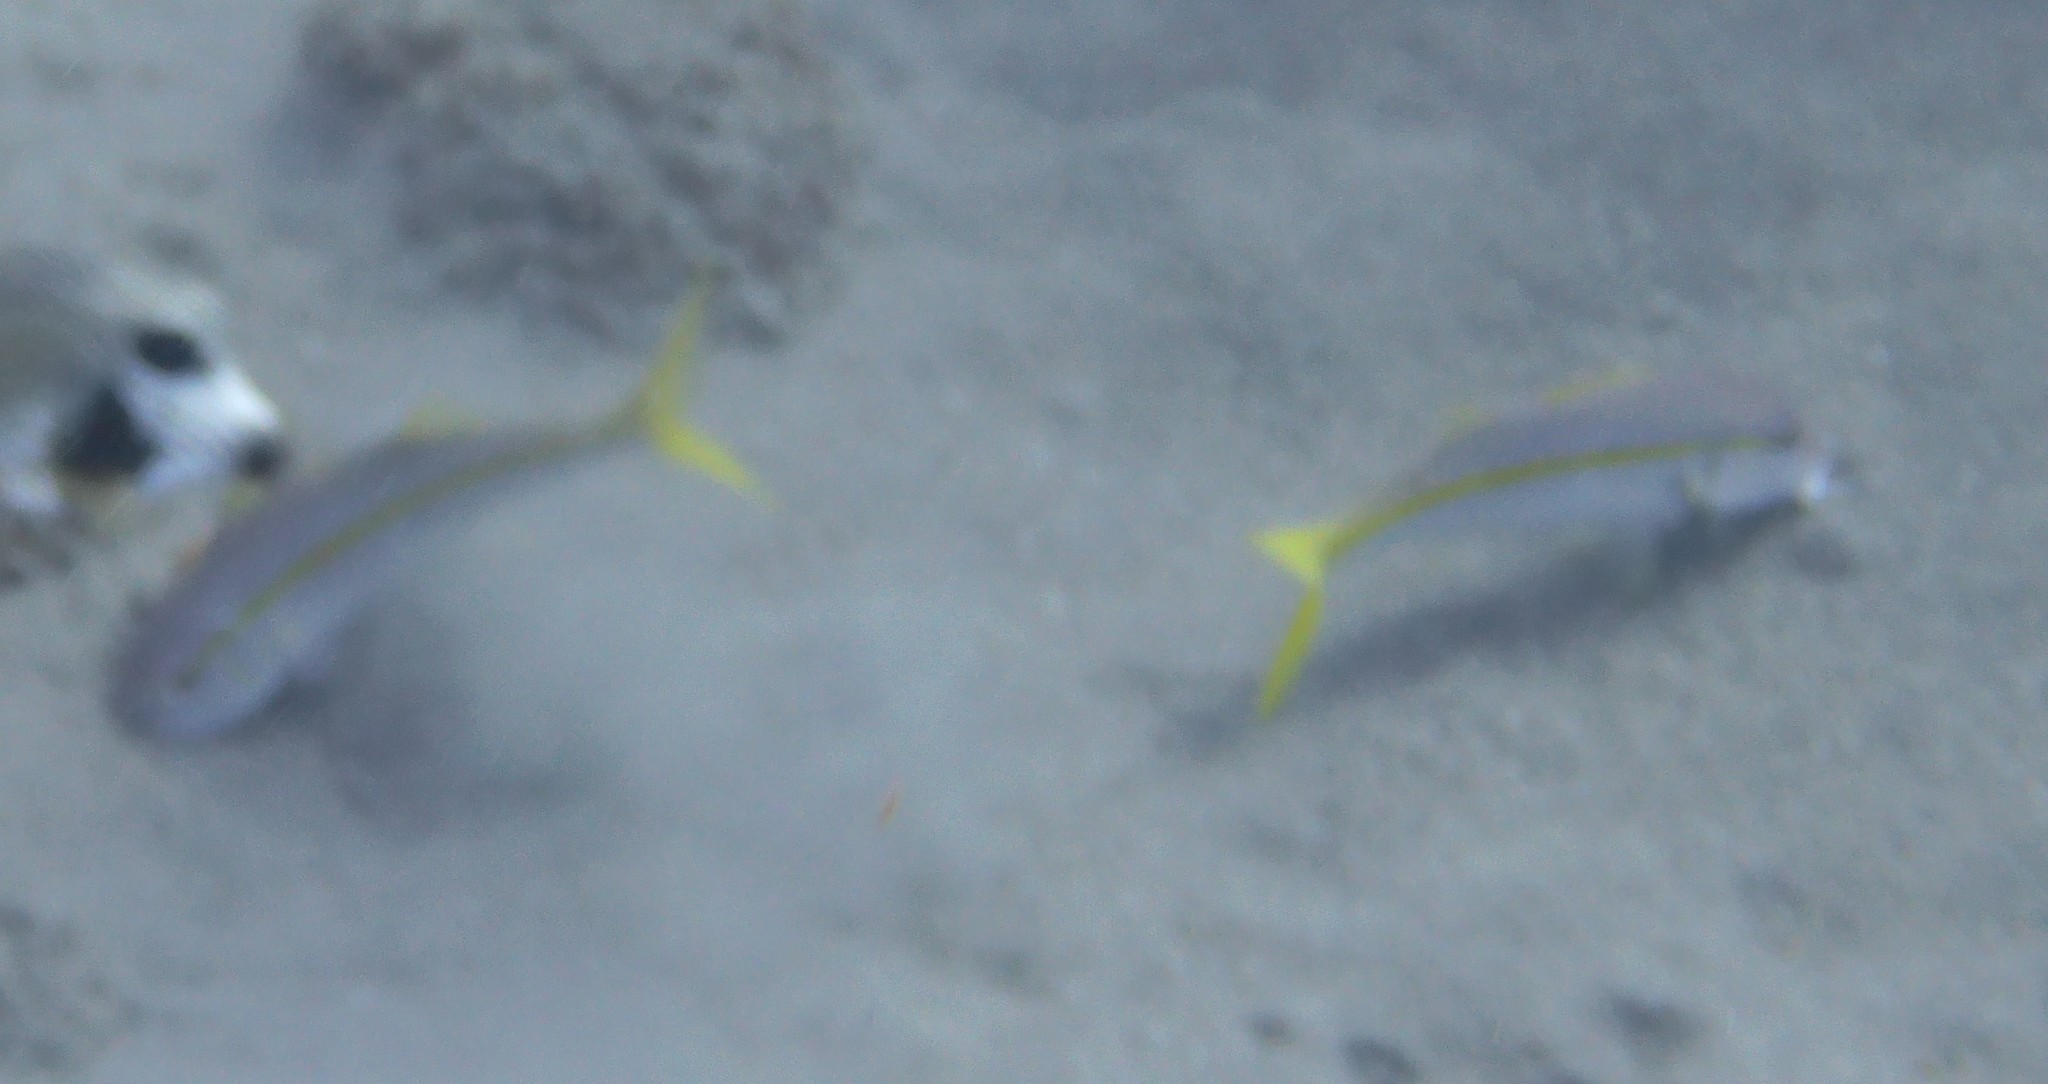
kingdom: Animalia
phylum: Chordata
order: Perciformes
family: Mullidae
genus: Mulloidichthys
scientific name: Mulloidichthys martinicus
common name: Yellow goatfish
